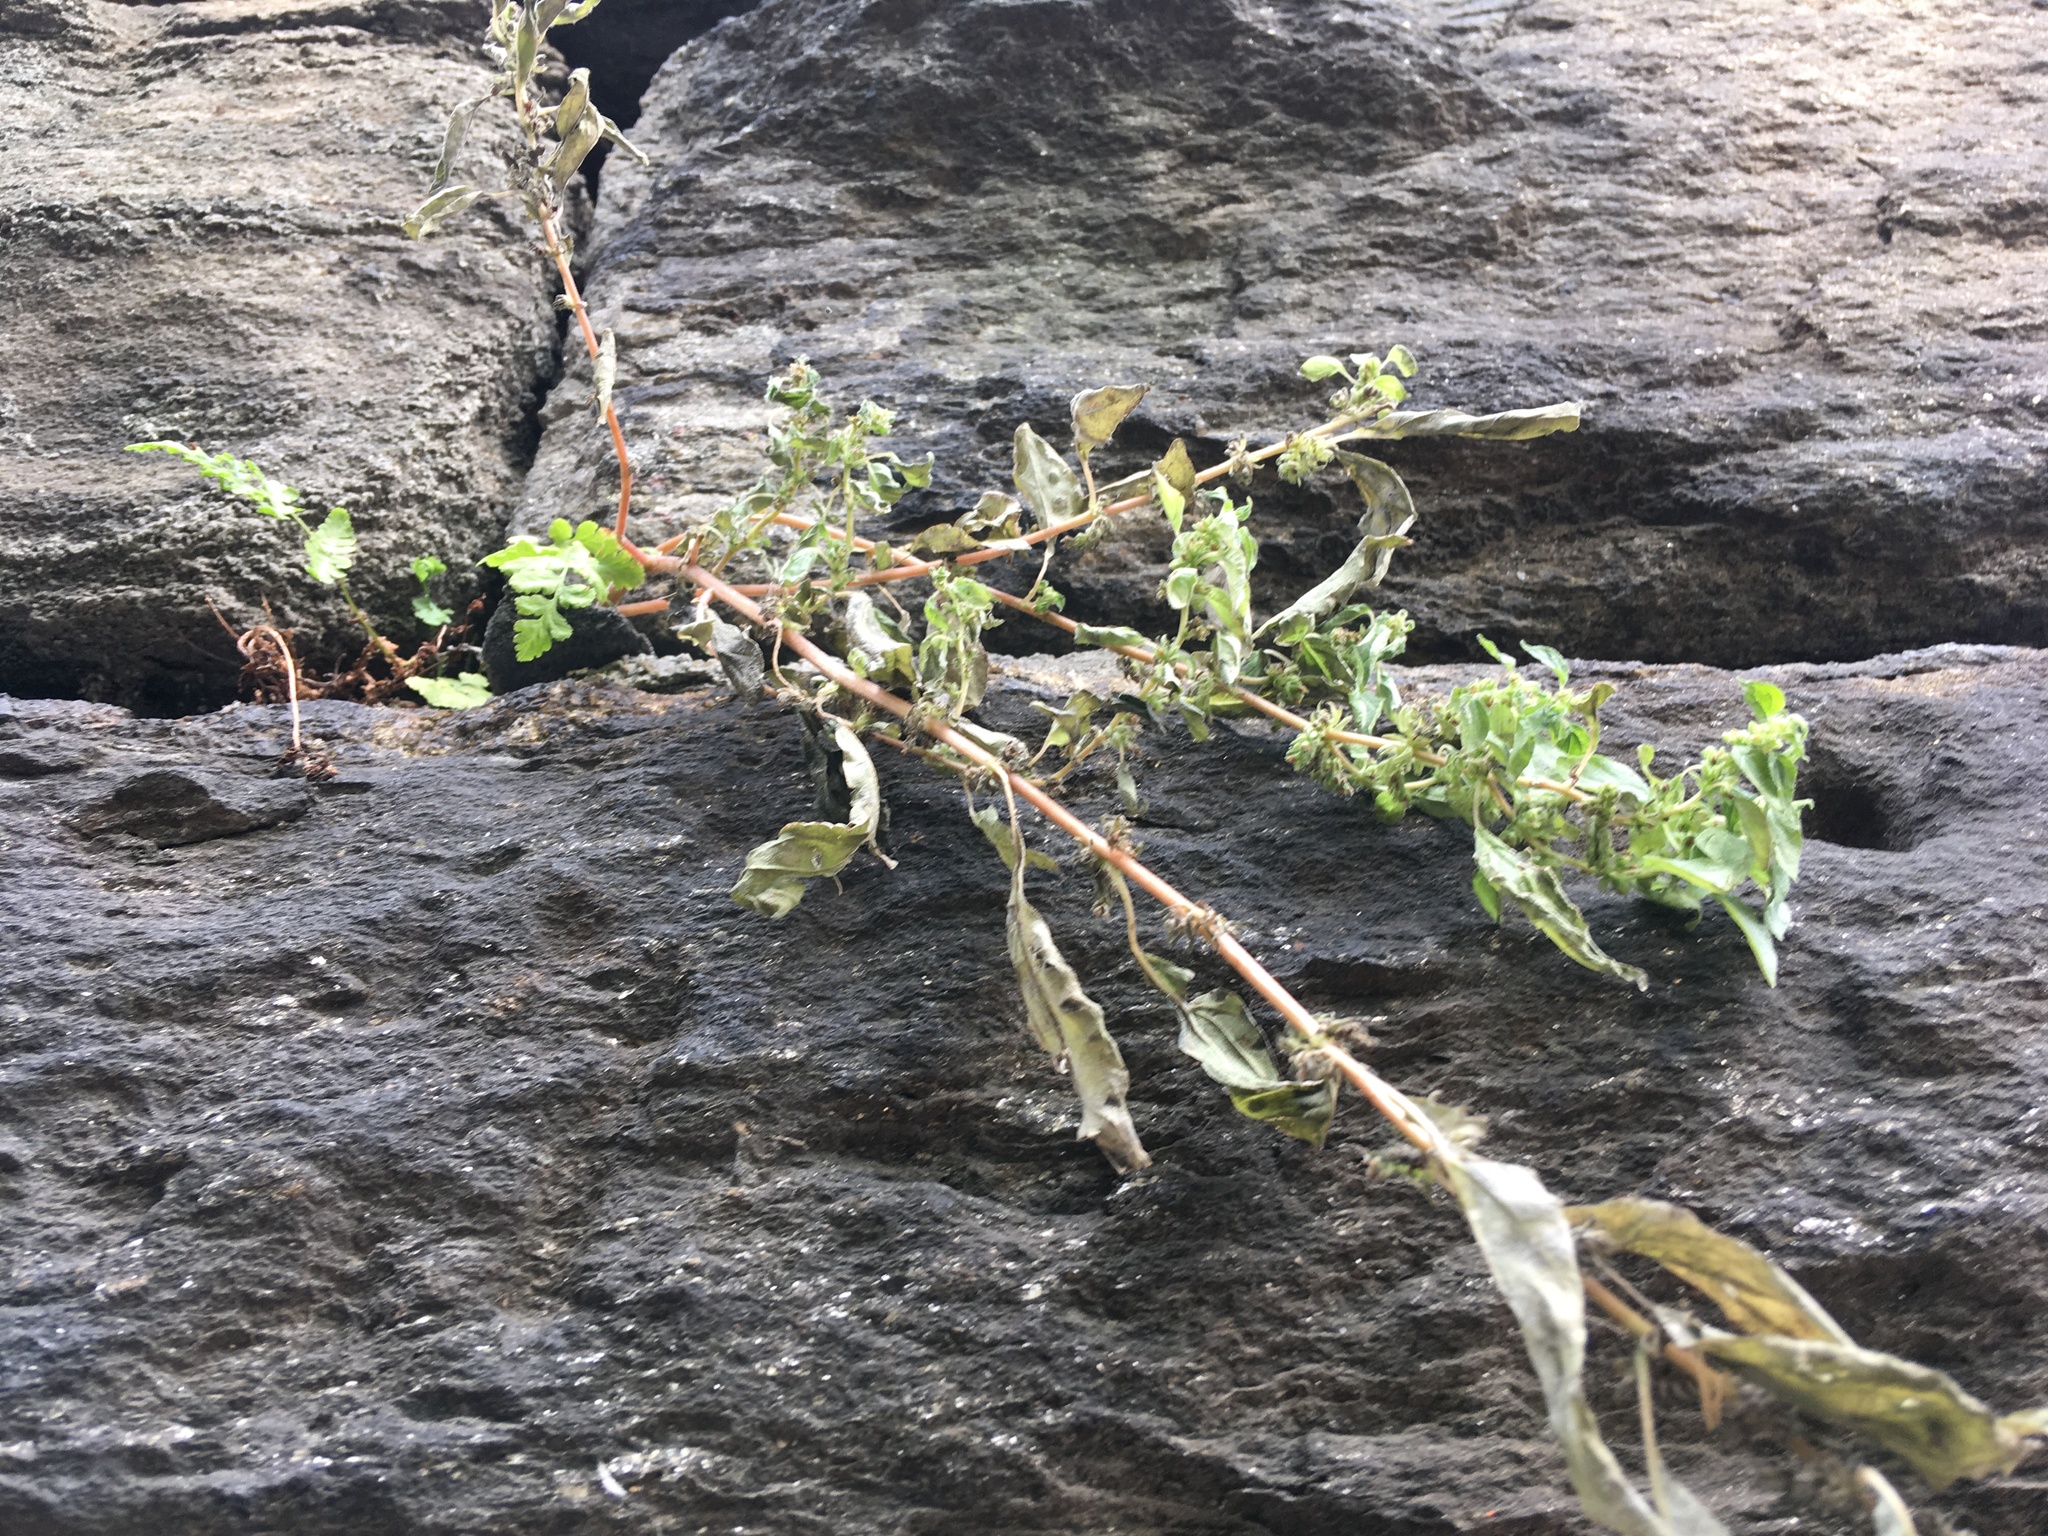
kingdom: Plantae
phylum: Tracheophyta
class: Magnoliopsida
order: Rosales
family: Urticaceae
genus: Parietaria
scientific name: Parietaria pensylvanica
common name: Pennsylvania pellitory
